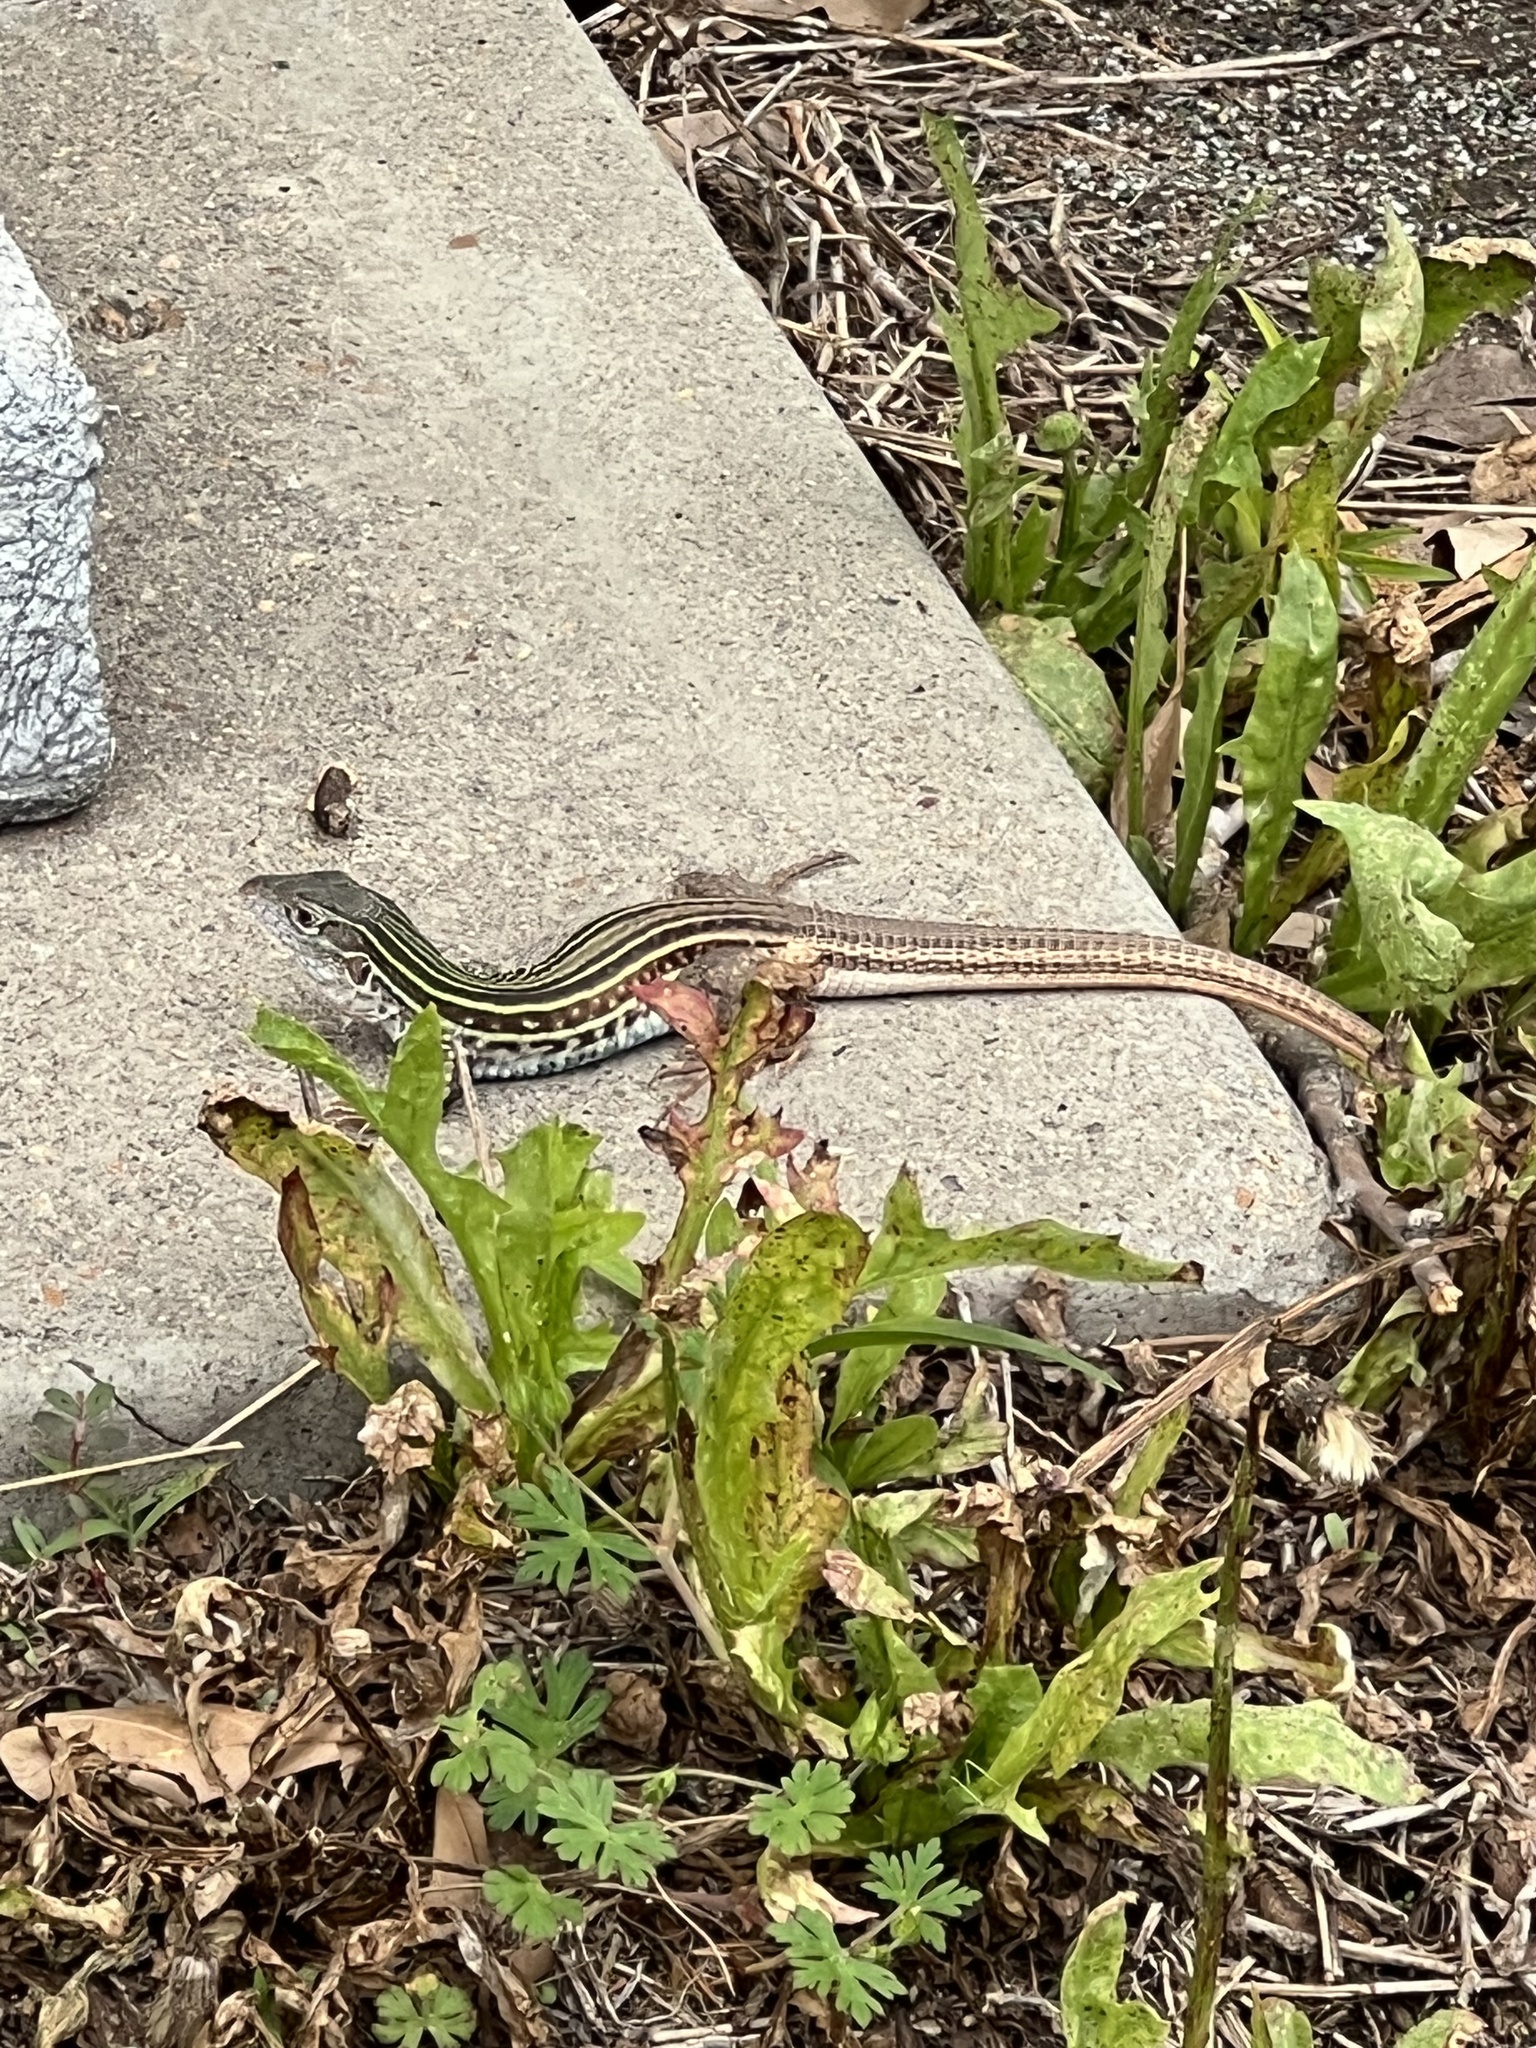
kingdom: Animalia
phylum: Chordata
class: Squamata
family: Teiidae
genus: Aspidoscelis
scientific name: Aspidoscelis gularis
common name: Eastern spotted whiptail
